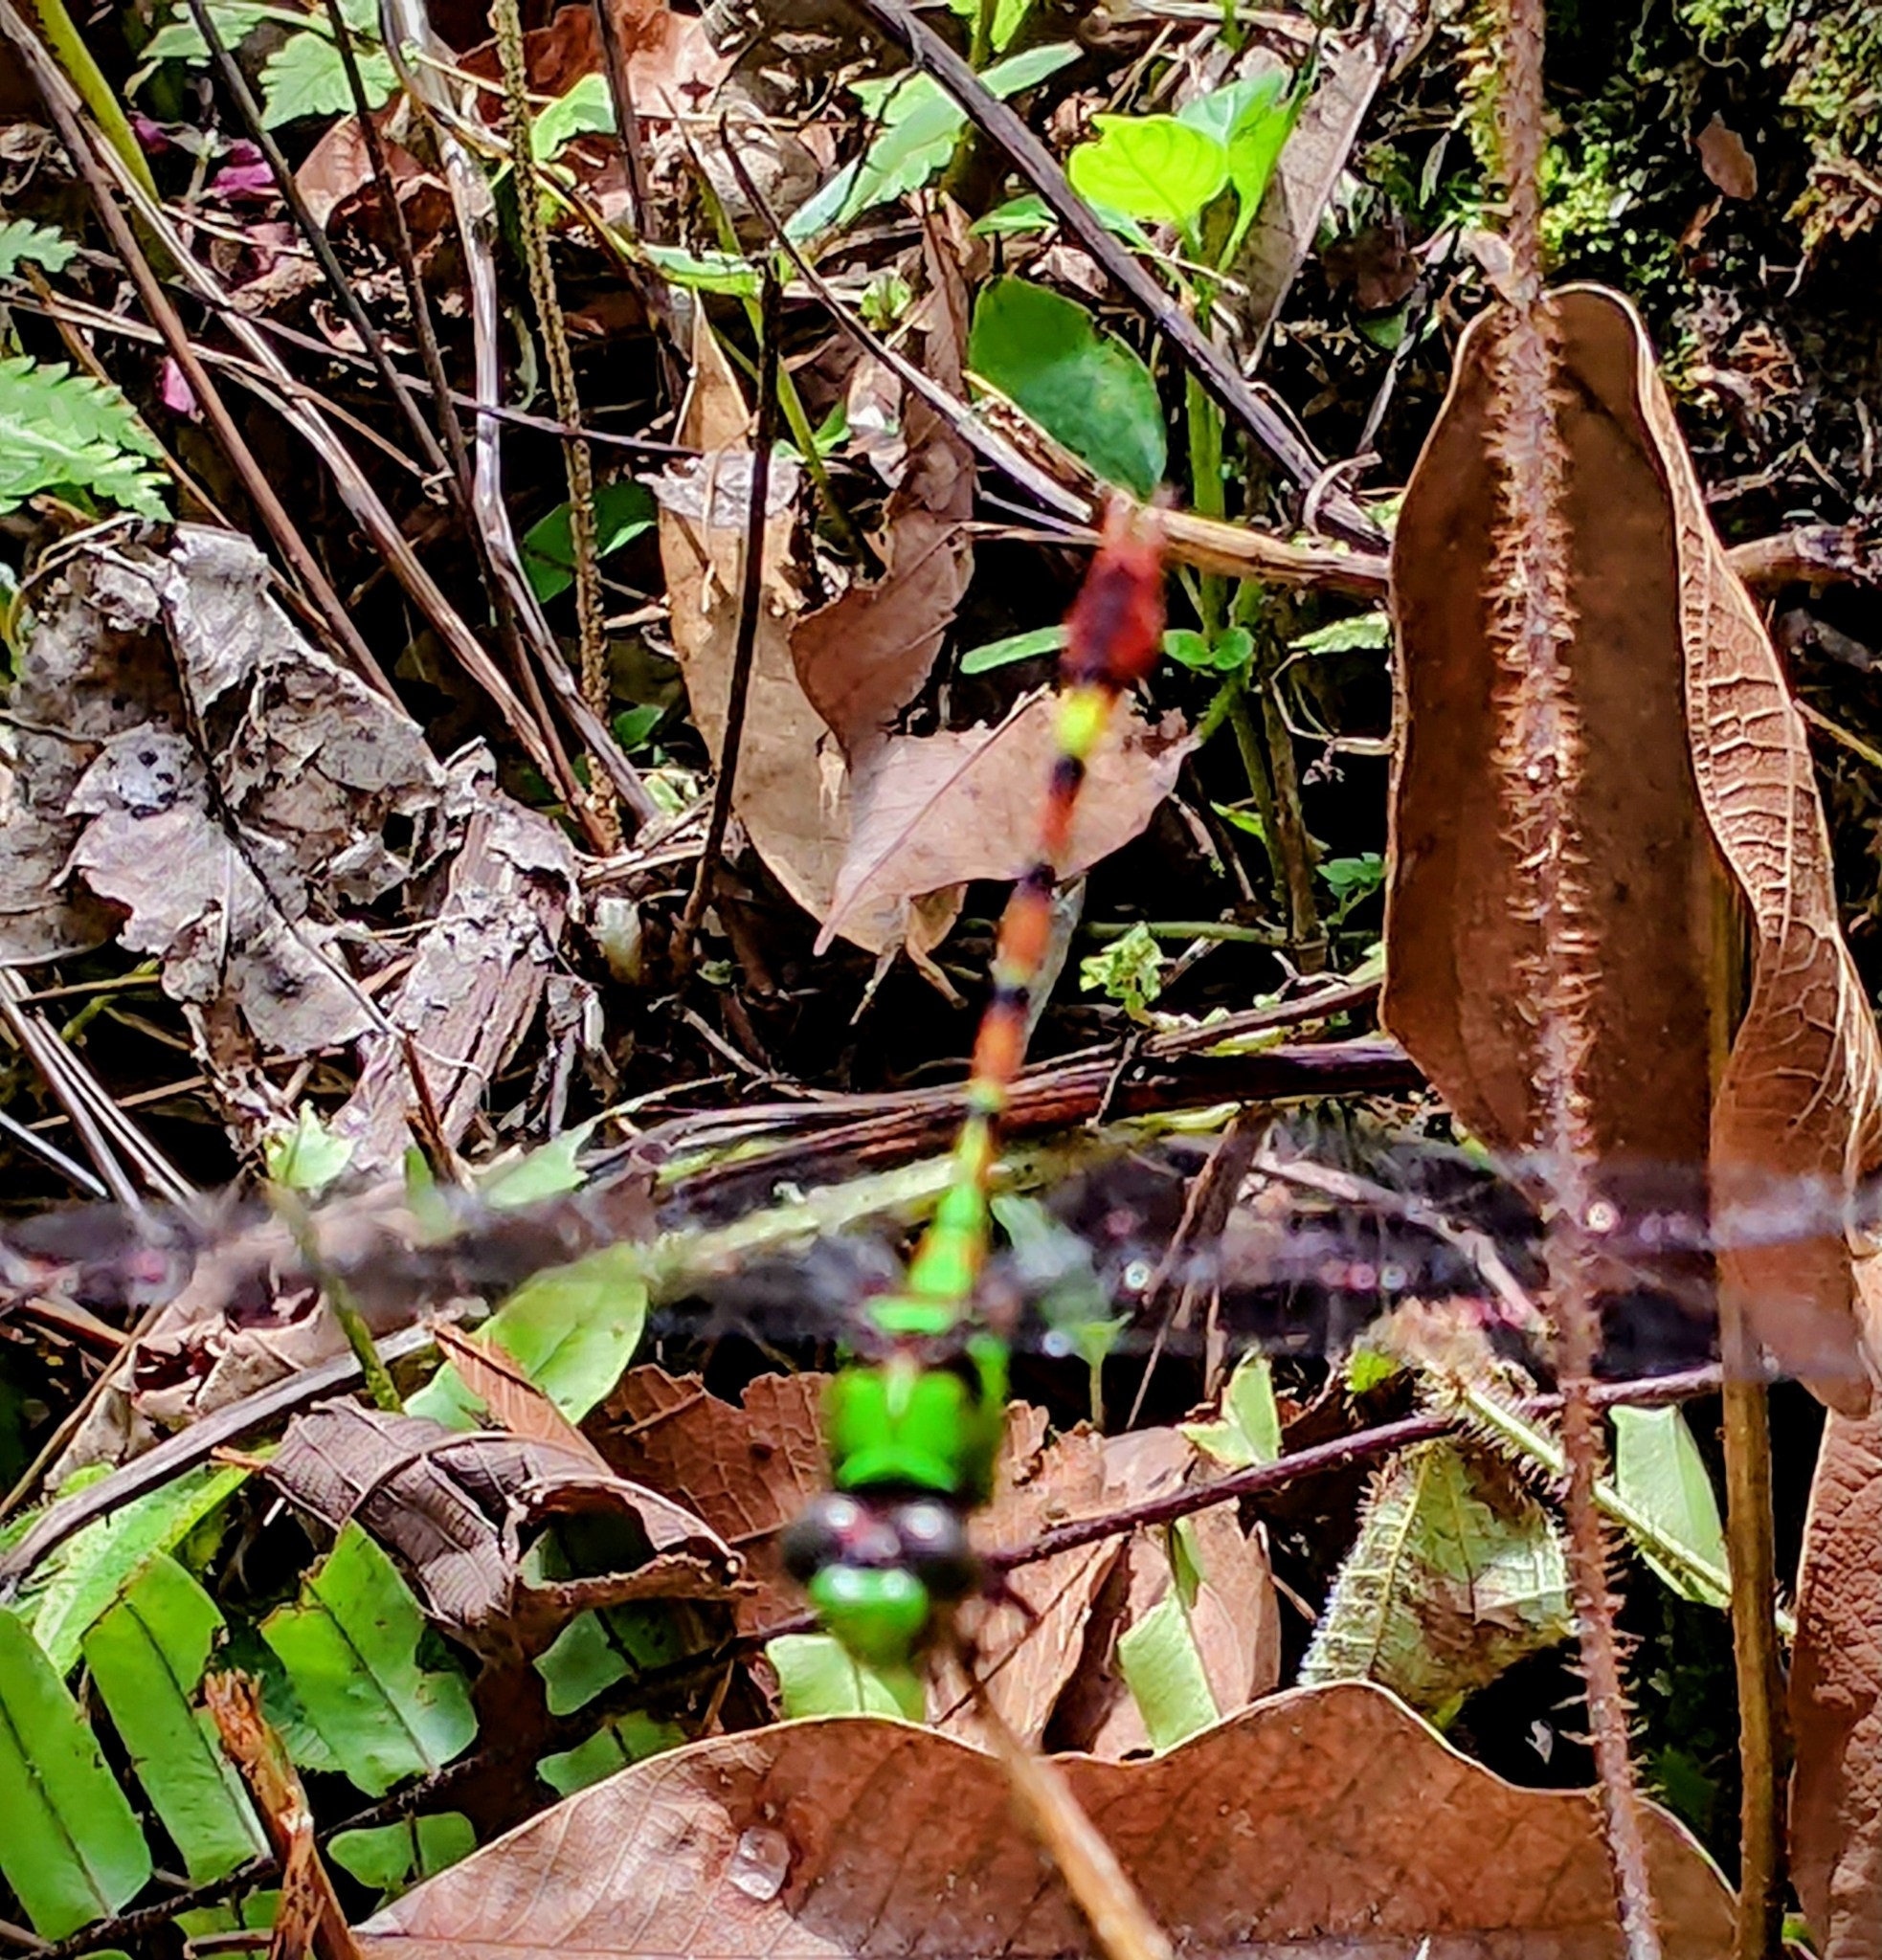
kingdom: Animalia
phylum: Arthropoda
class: Insecta
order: Odonata
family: Gomphidae
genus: Megalogomphus
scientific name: Megalogomphus sumatranus
